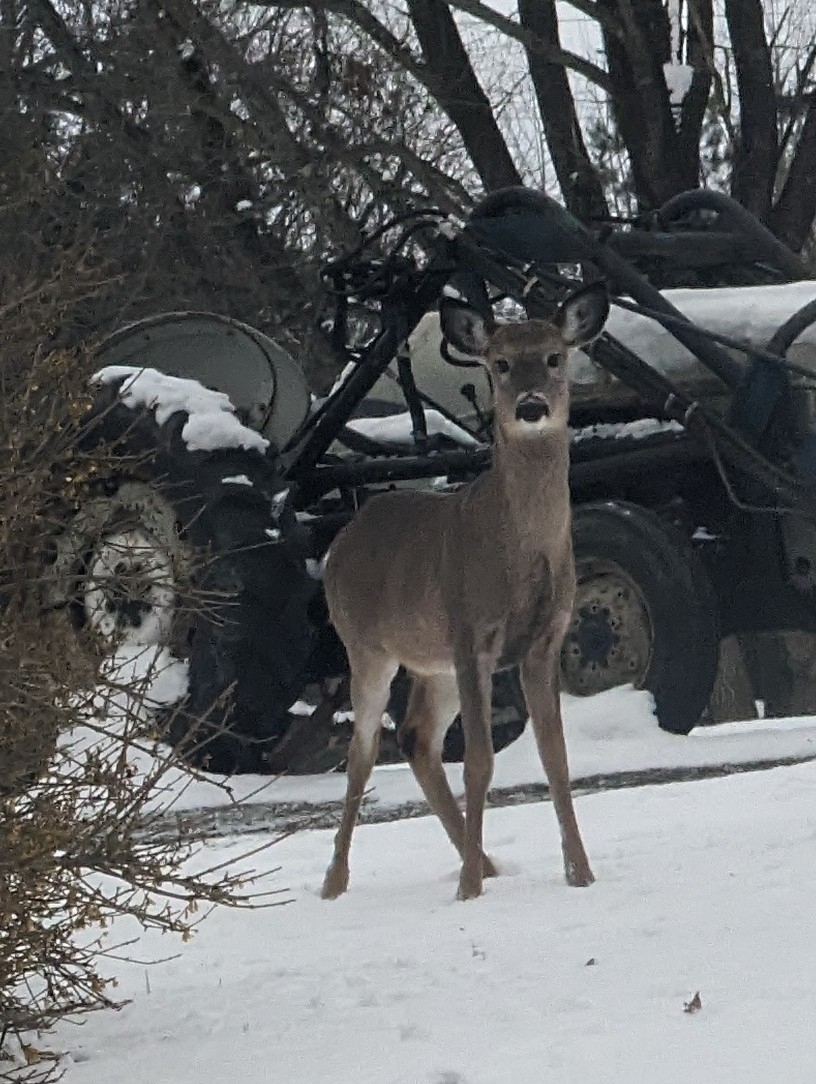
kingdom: Animalia
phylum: Chordata
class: Mammalia
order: Artiodactyla
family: Cervidae
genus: Odocoileus
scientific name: Odocoileus virginianus
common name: White-tailed deer
